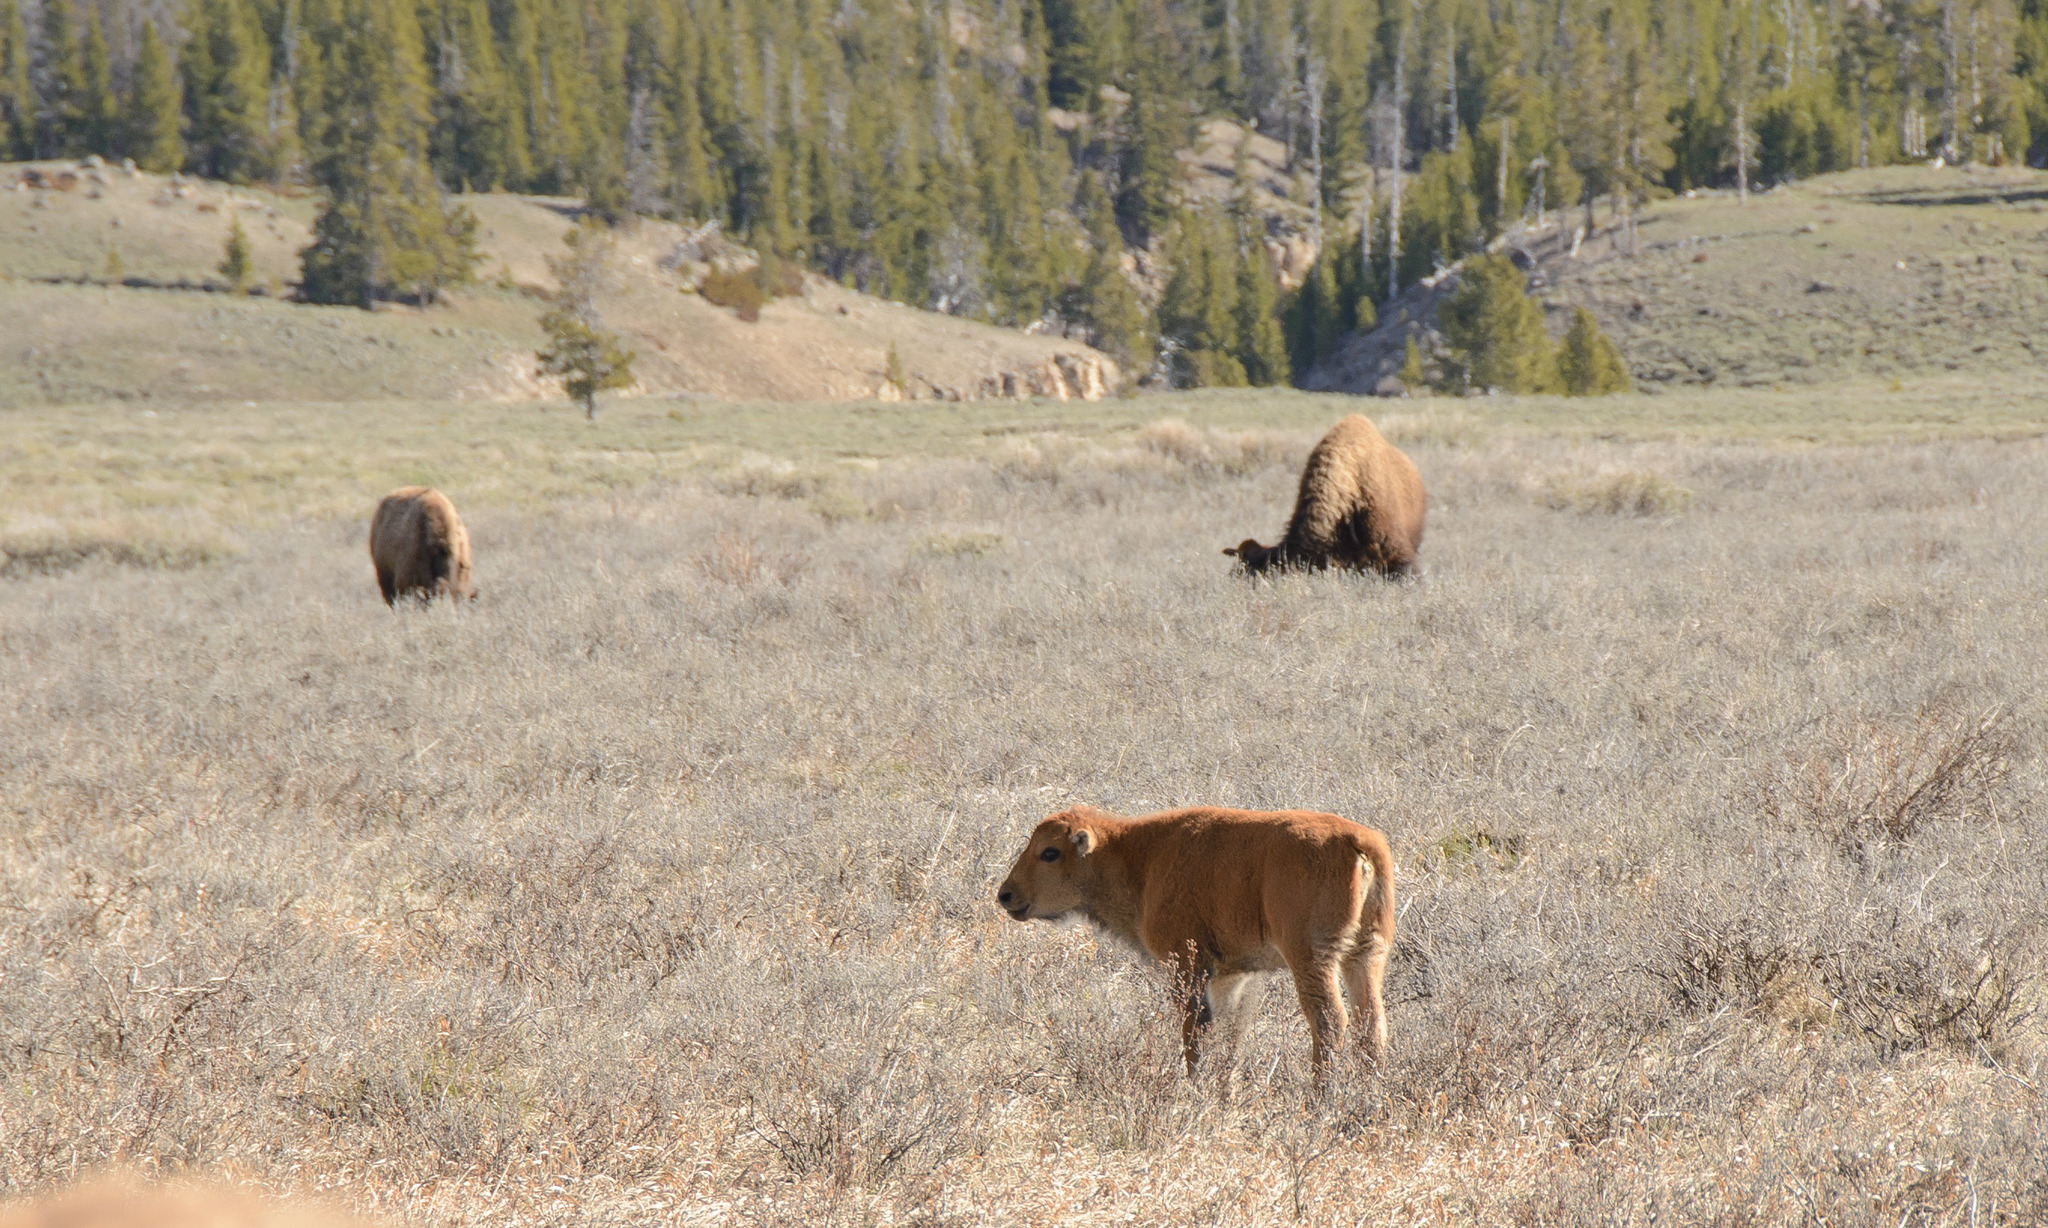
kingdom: Animalia
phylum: Chordata
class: Mammalia
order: Artiodactyla
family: Bovidae
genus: Bison
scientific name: Bison bison
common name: American bison
